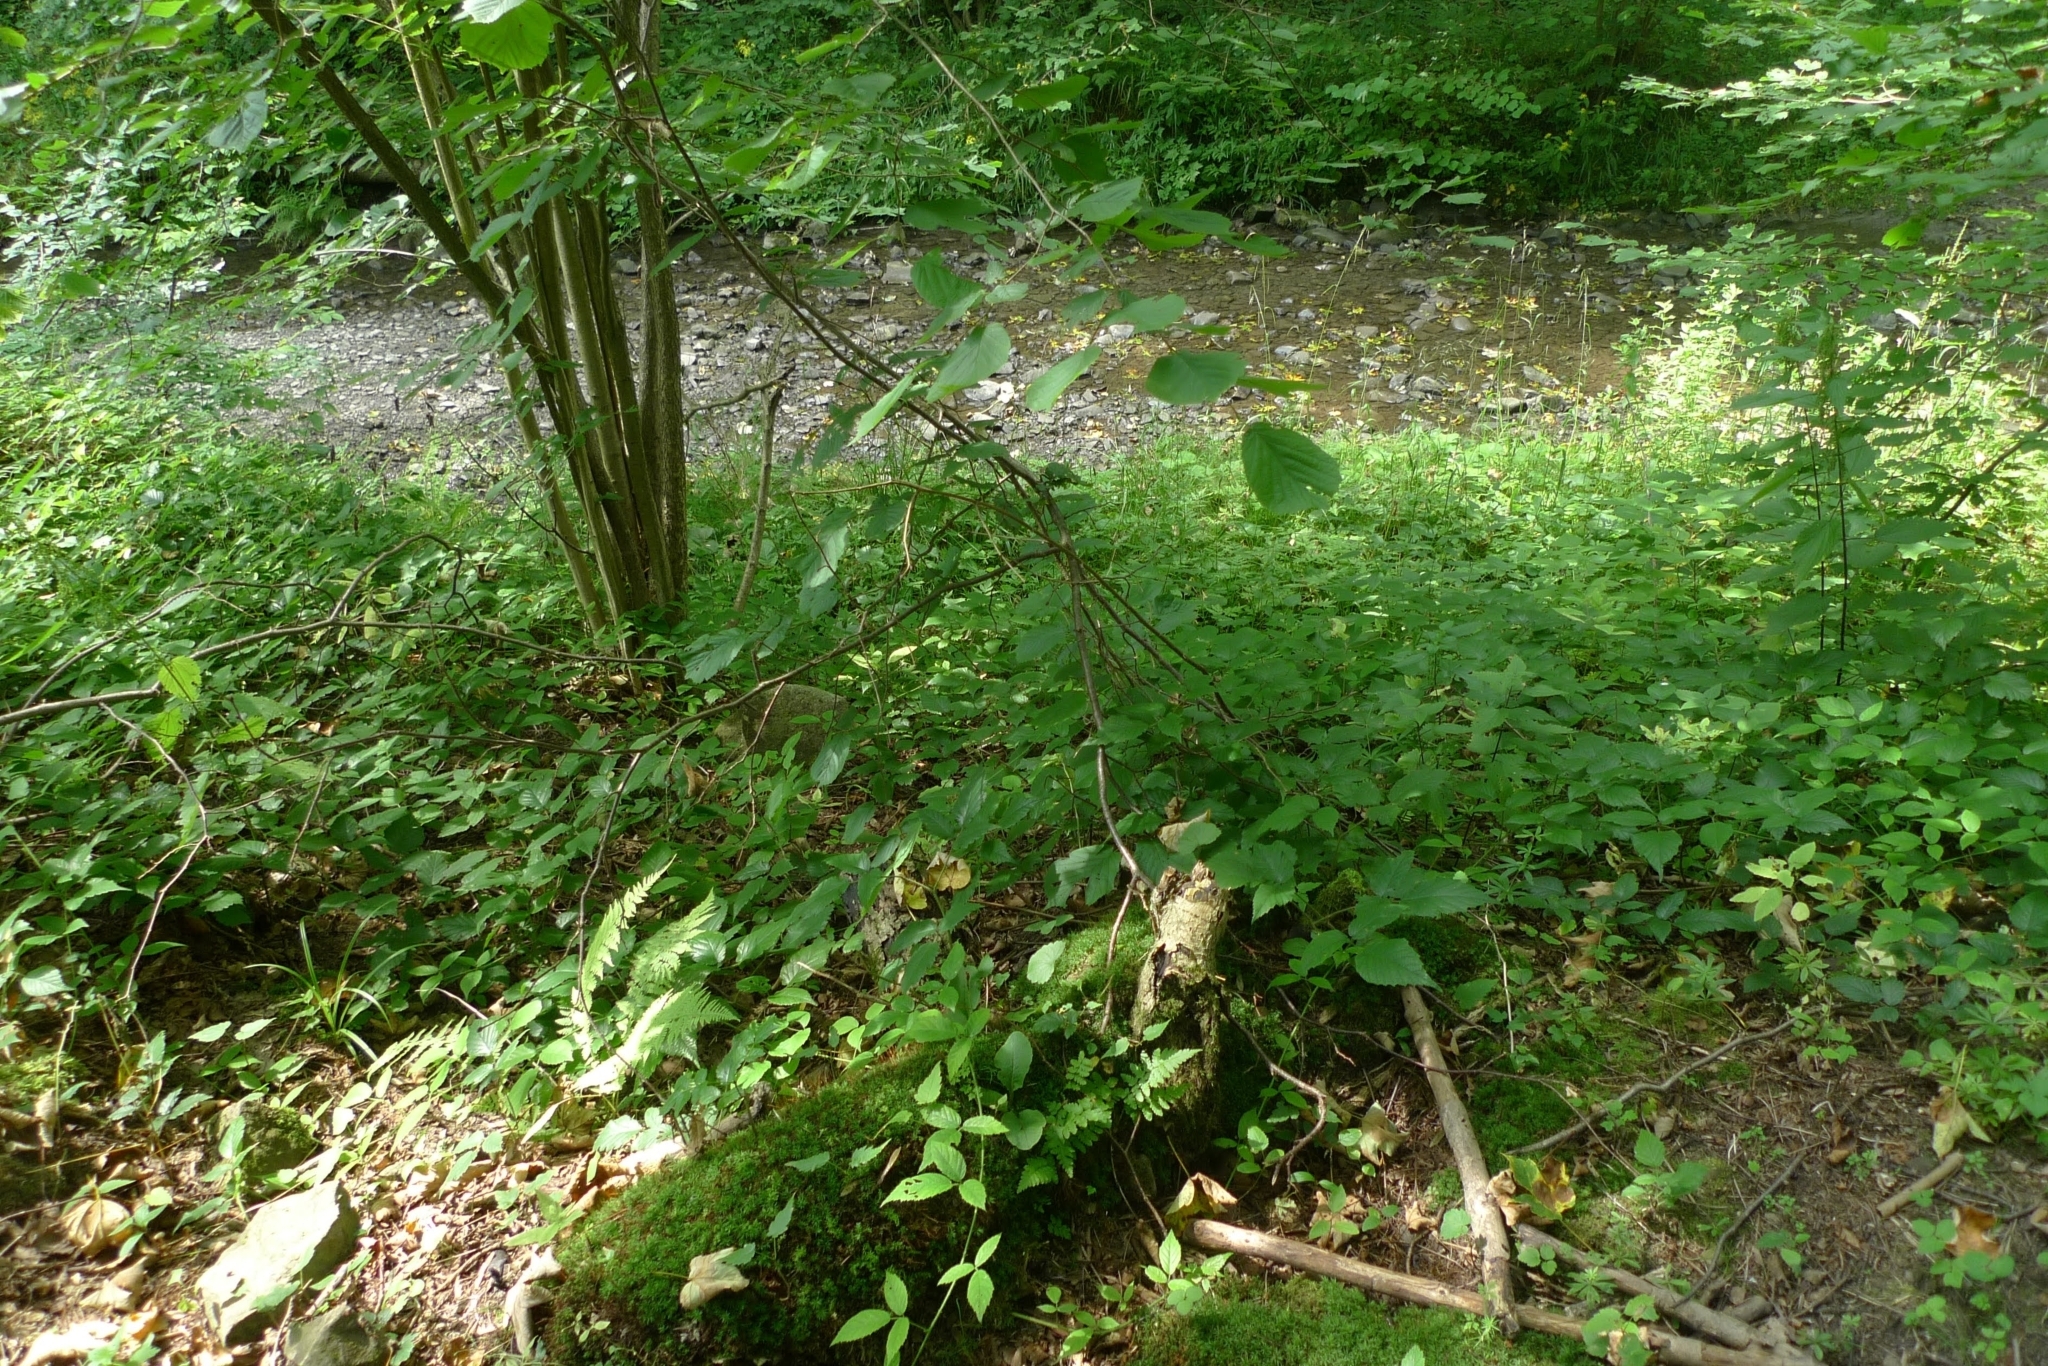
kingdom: Plantae
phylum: Bryophyta
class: Polytrichopsida
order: Polytrichales
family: Polytrichaceae
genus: Atrichum
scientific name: Atrichum undulatum
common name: Common smoothcap
